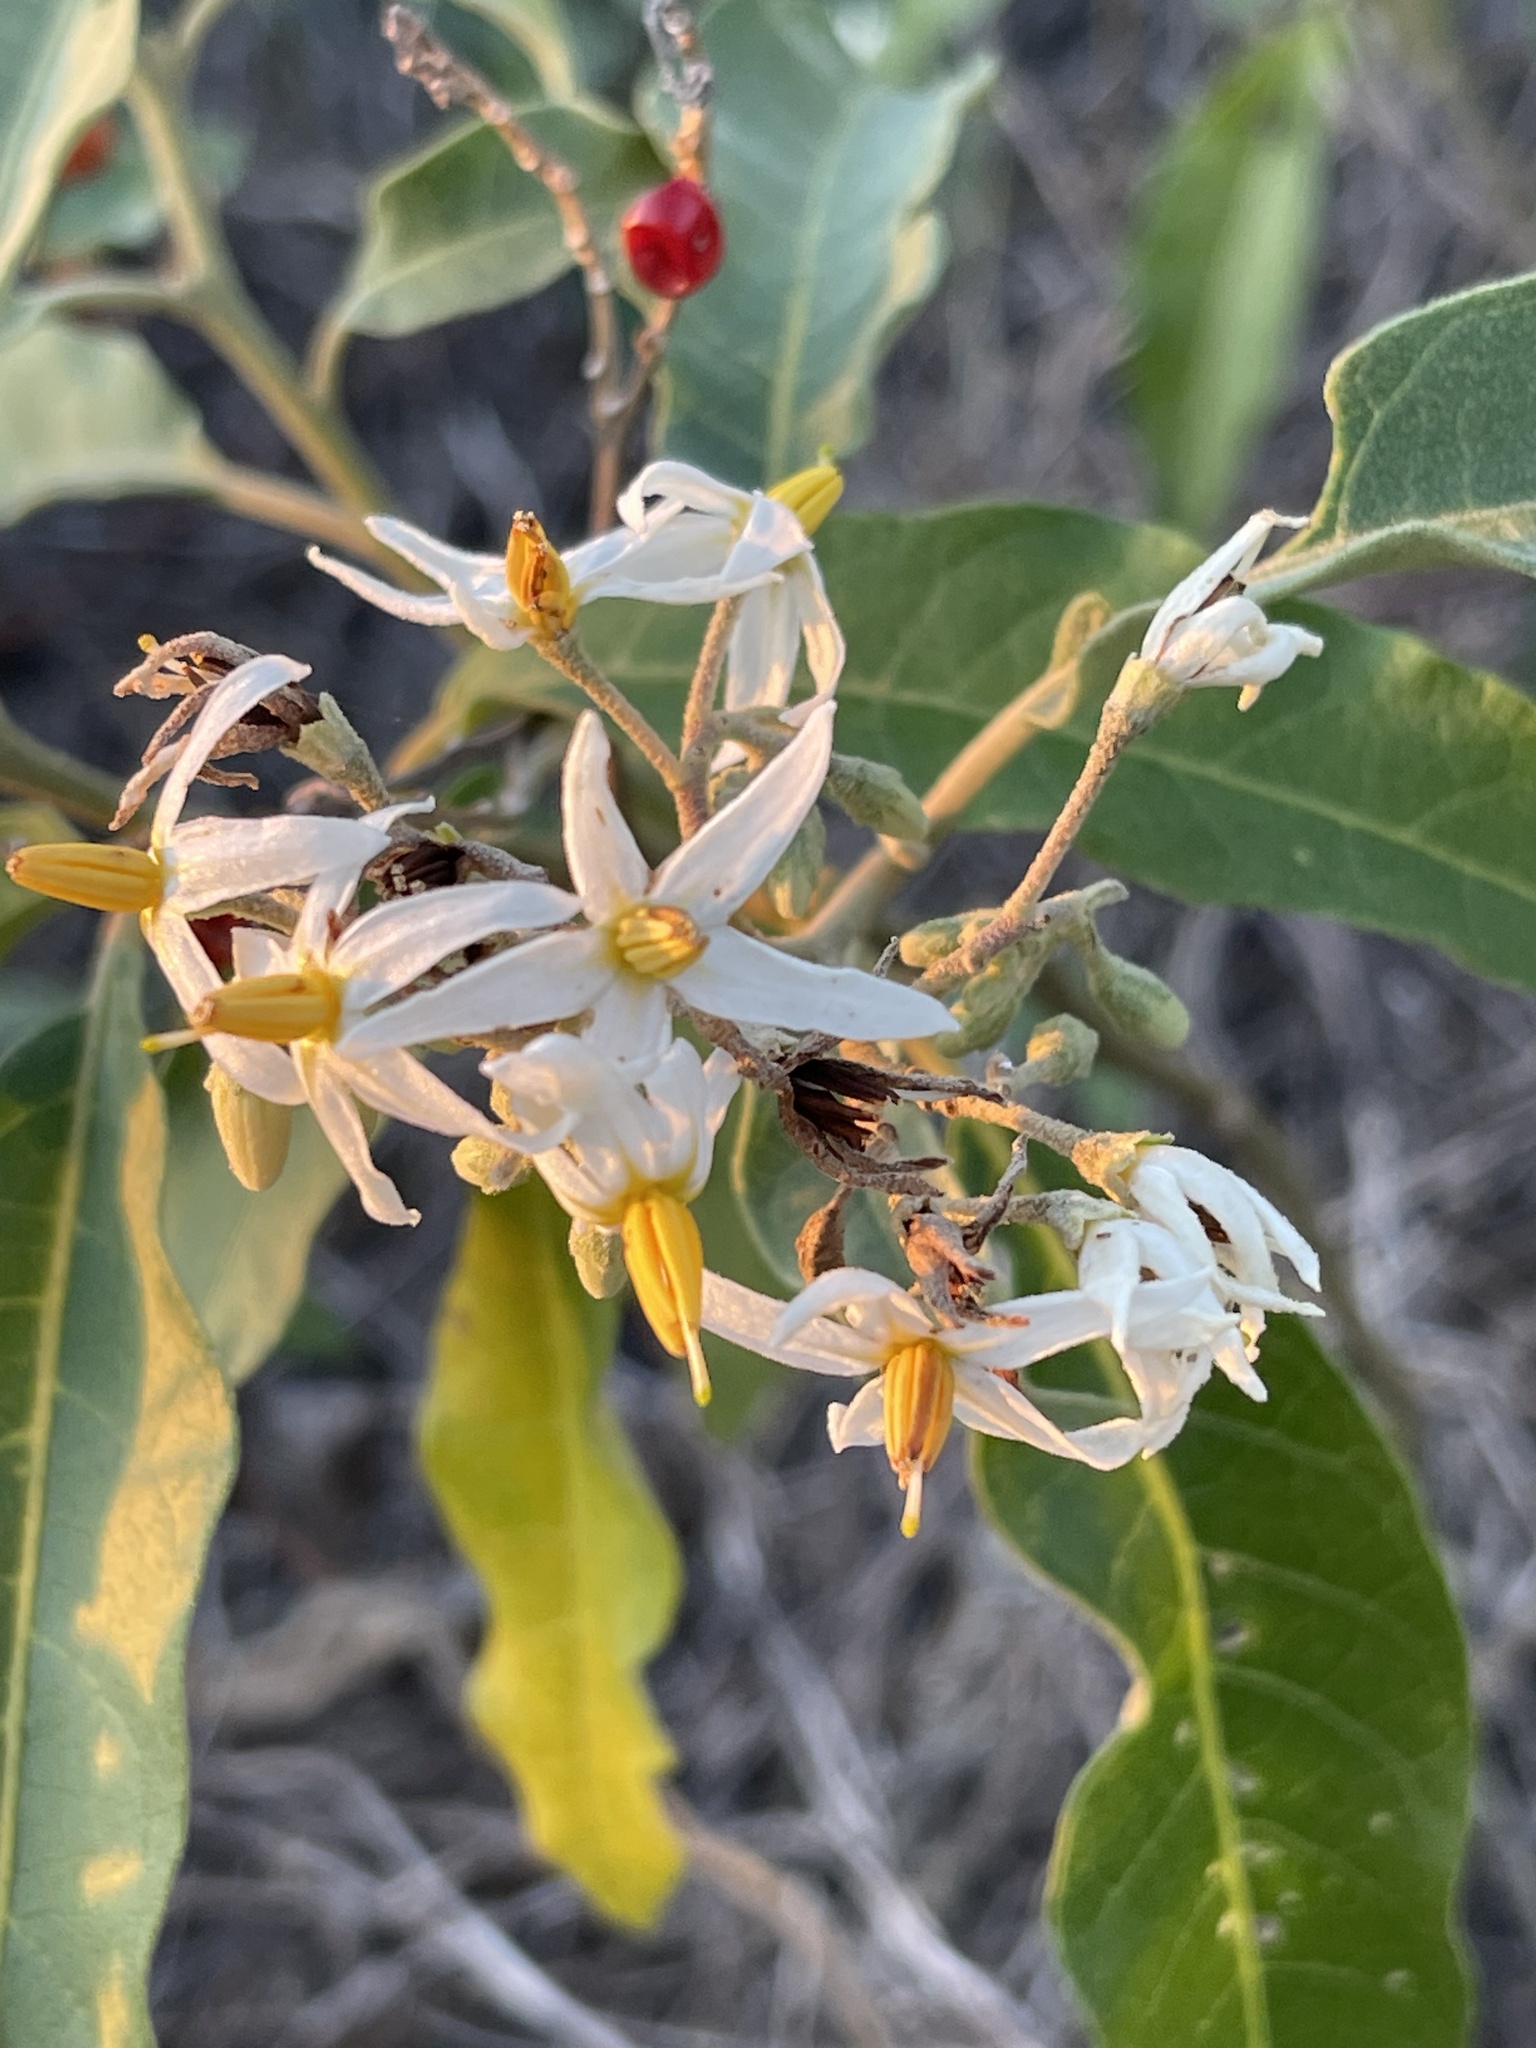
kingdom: Plantae
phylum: Tracheophyta
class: Magnoliopsida
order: Solanales
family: Solanaceae
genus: Solanum
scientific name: Solanum donianum
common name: Mullein nightshade
